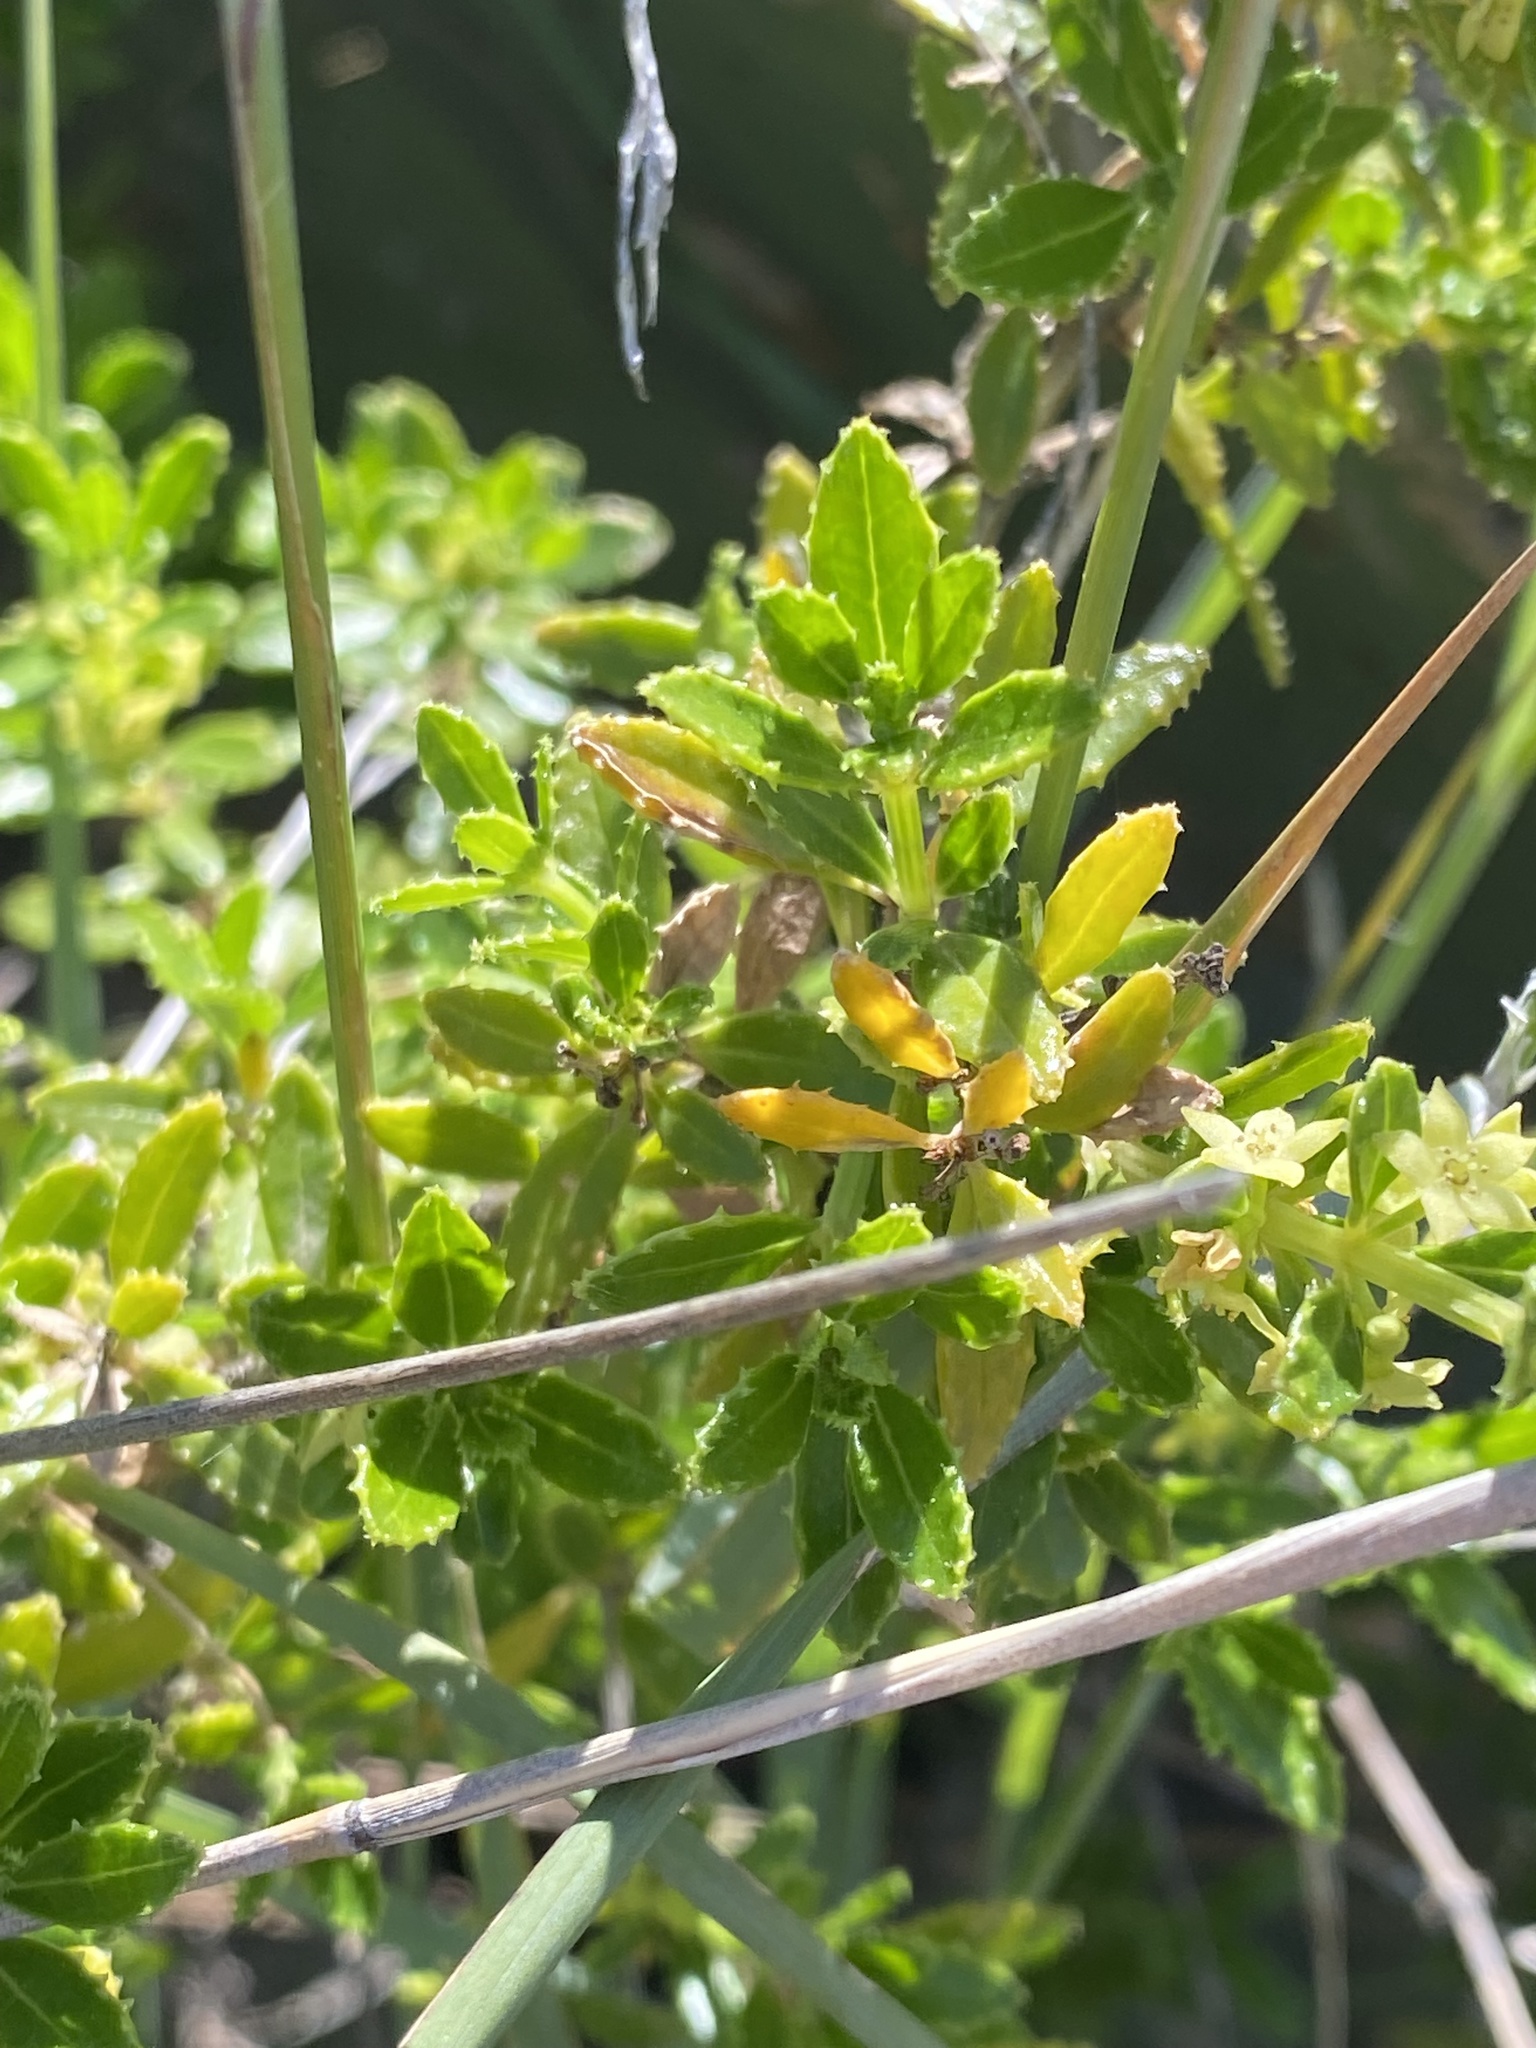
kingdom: Plantae
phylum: Tracheophyta
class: Magnoliopsida
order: Gentianales
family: Rubiaceae
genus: Rubia
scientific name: Rubia fruticosa
